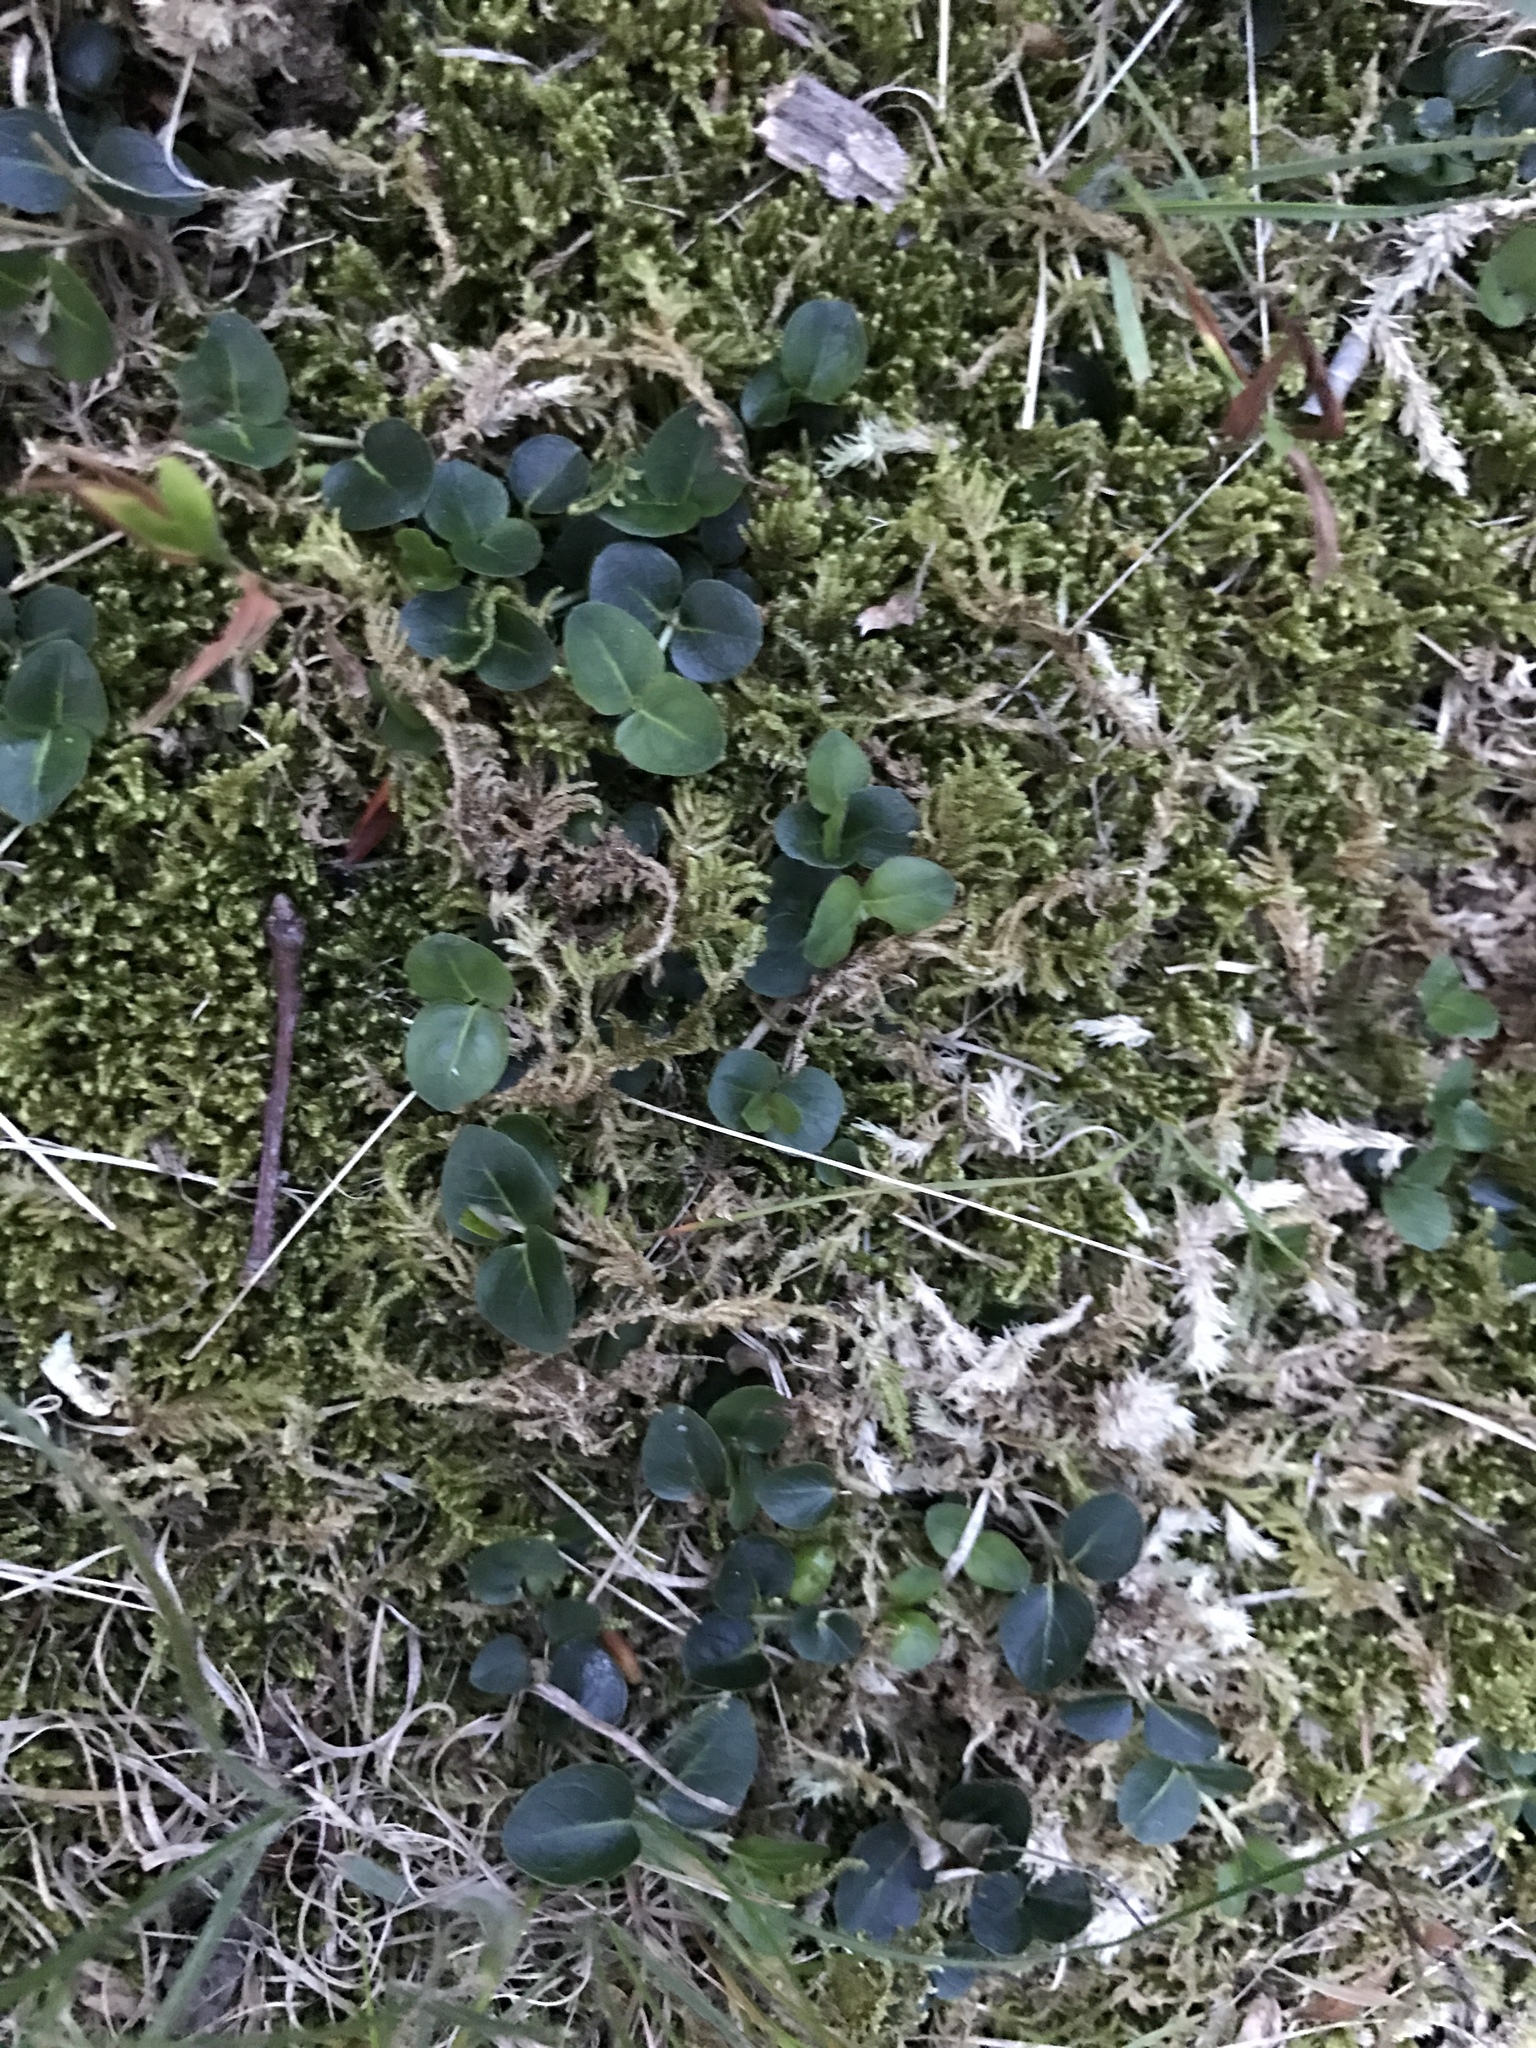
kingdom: Plantae
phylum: Tracheophyta
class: Magnoliopsida
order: Gentianales
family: Rubiaceae
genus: Mitchella
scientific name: Mitchella repens
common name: Partridge-berry
